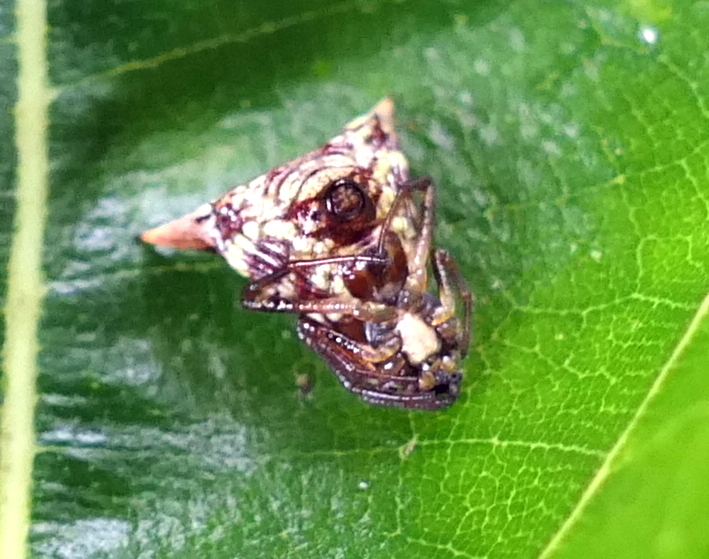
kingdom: Animalia
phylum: Arthropoda
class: Arachnida
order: Araneae
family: Araneidae
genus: Micrathena
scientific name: Micrathena evansi
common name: Orb weavers
